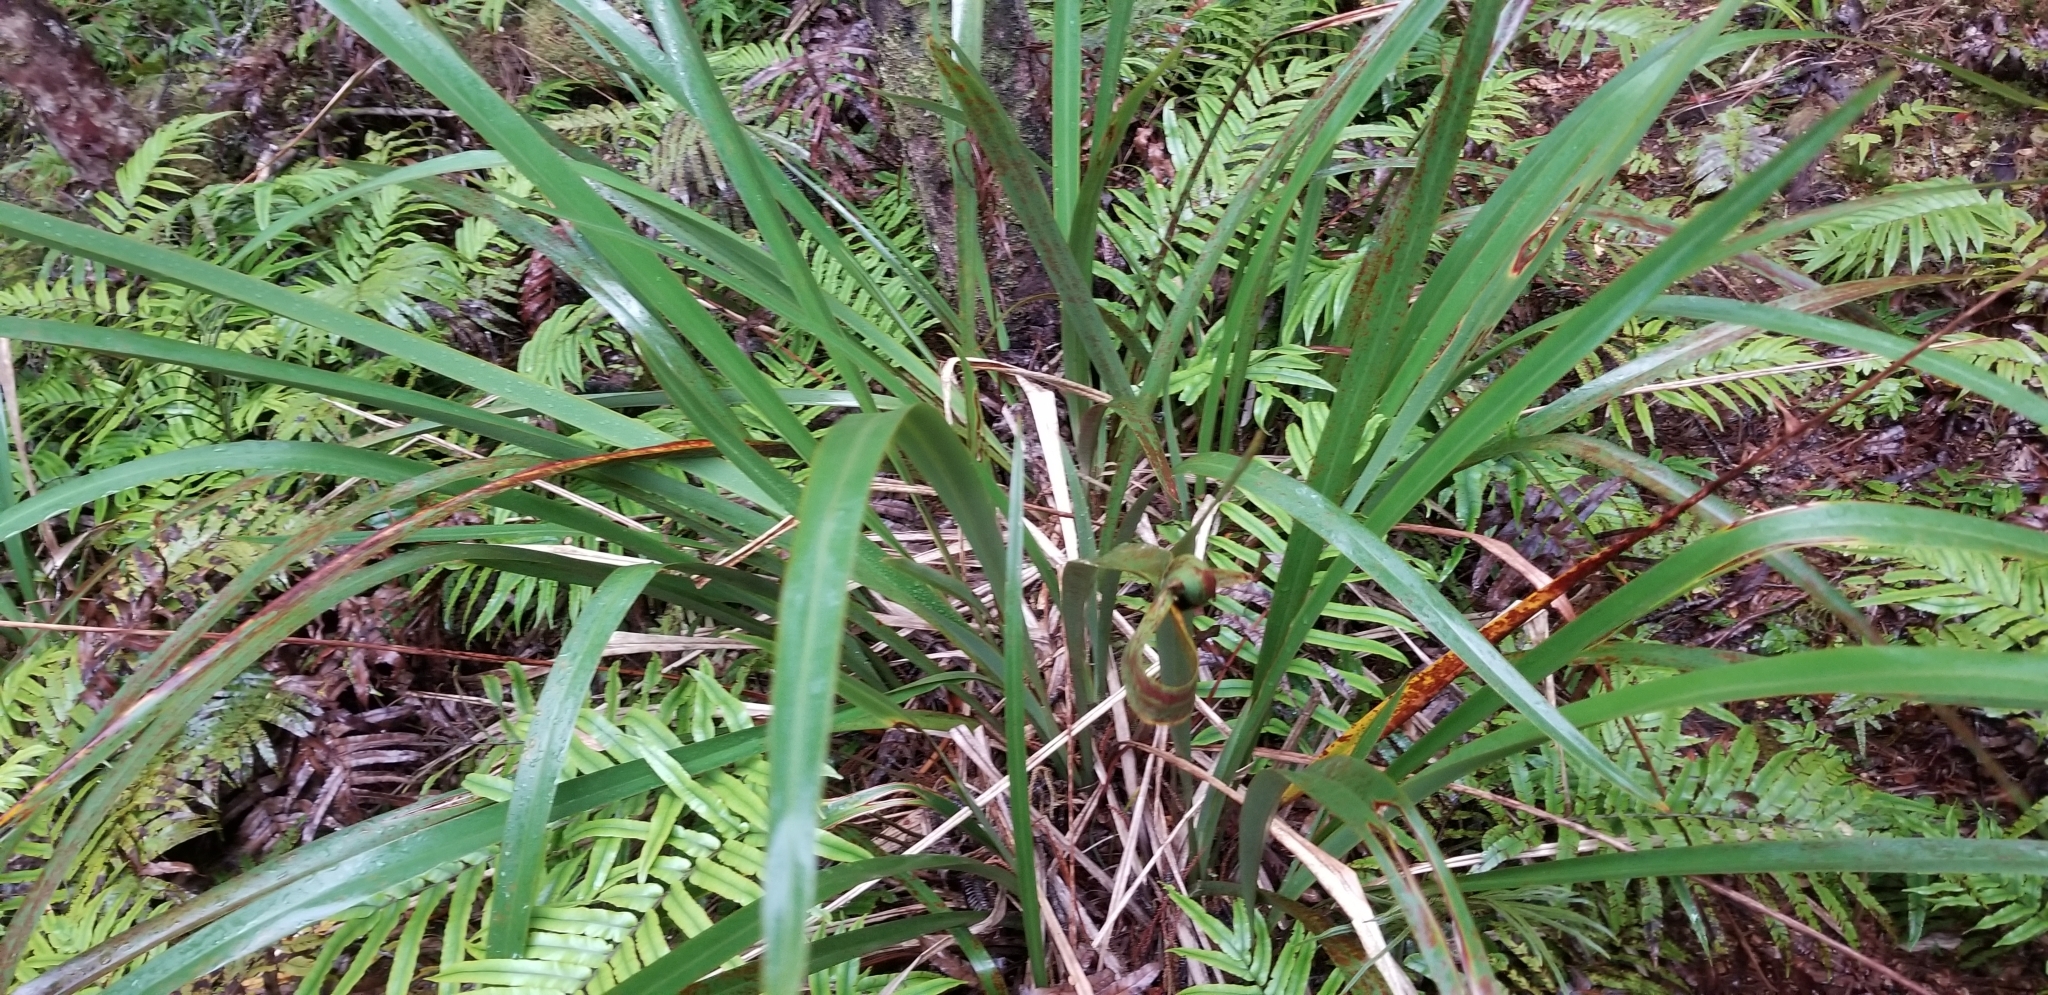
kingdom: Plantae
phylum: Tracheophyta
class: Liliopsida
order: Asparagales
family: Asphodelaceae
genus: Phormium
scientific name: Phormium colensoi
